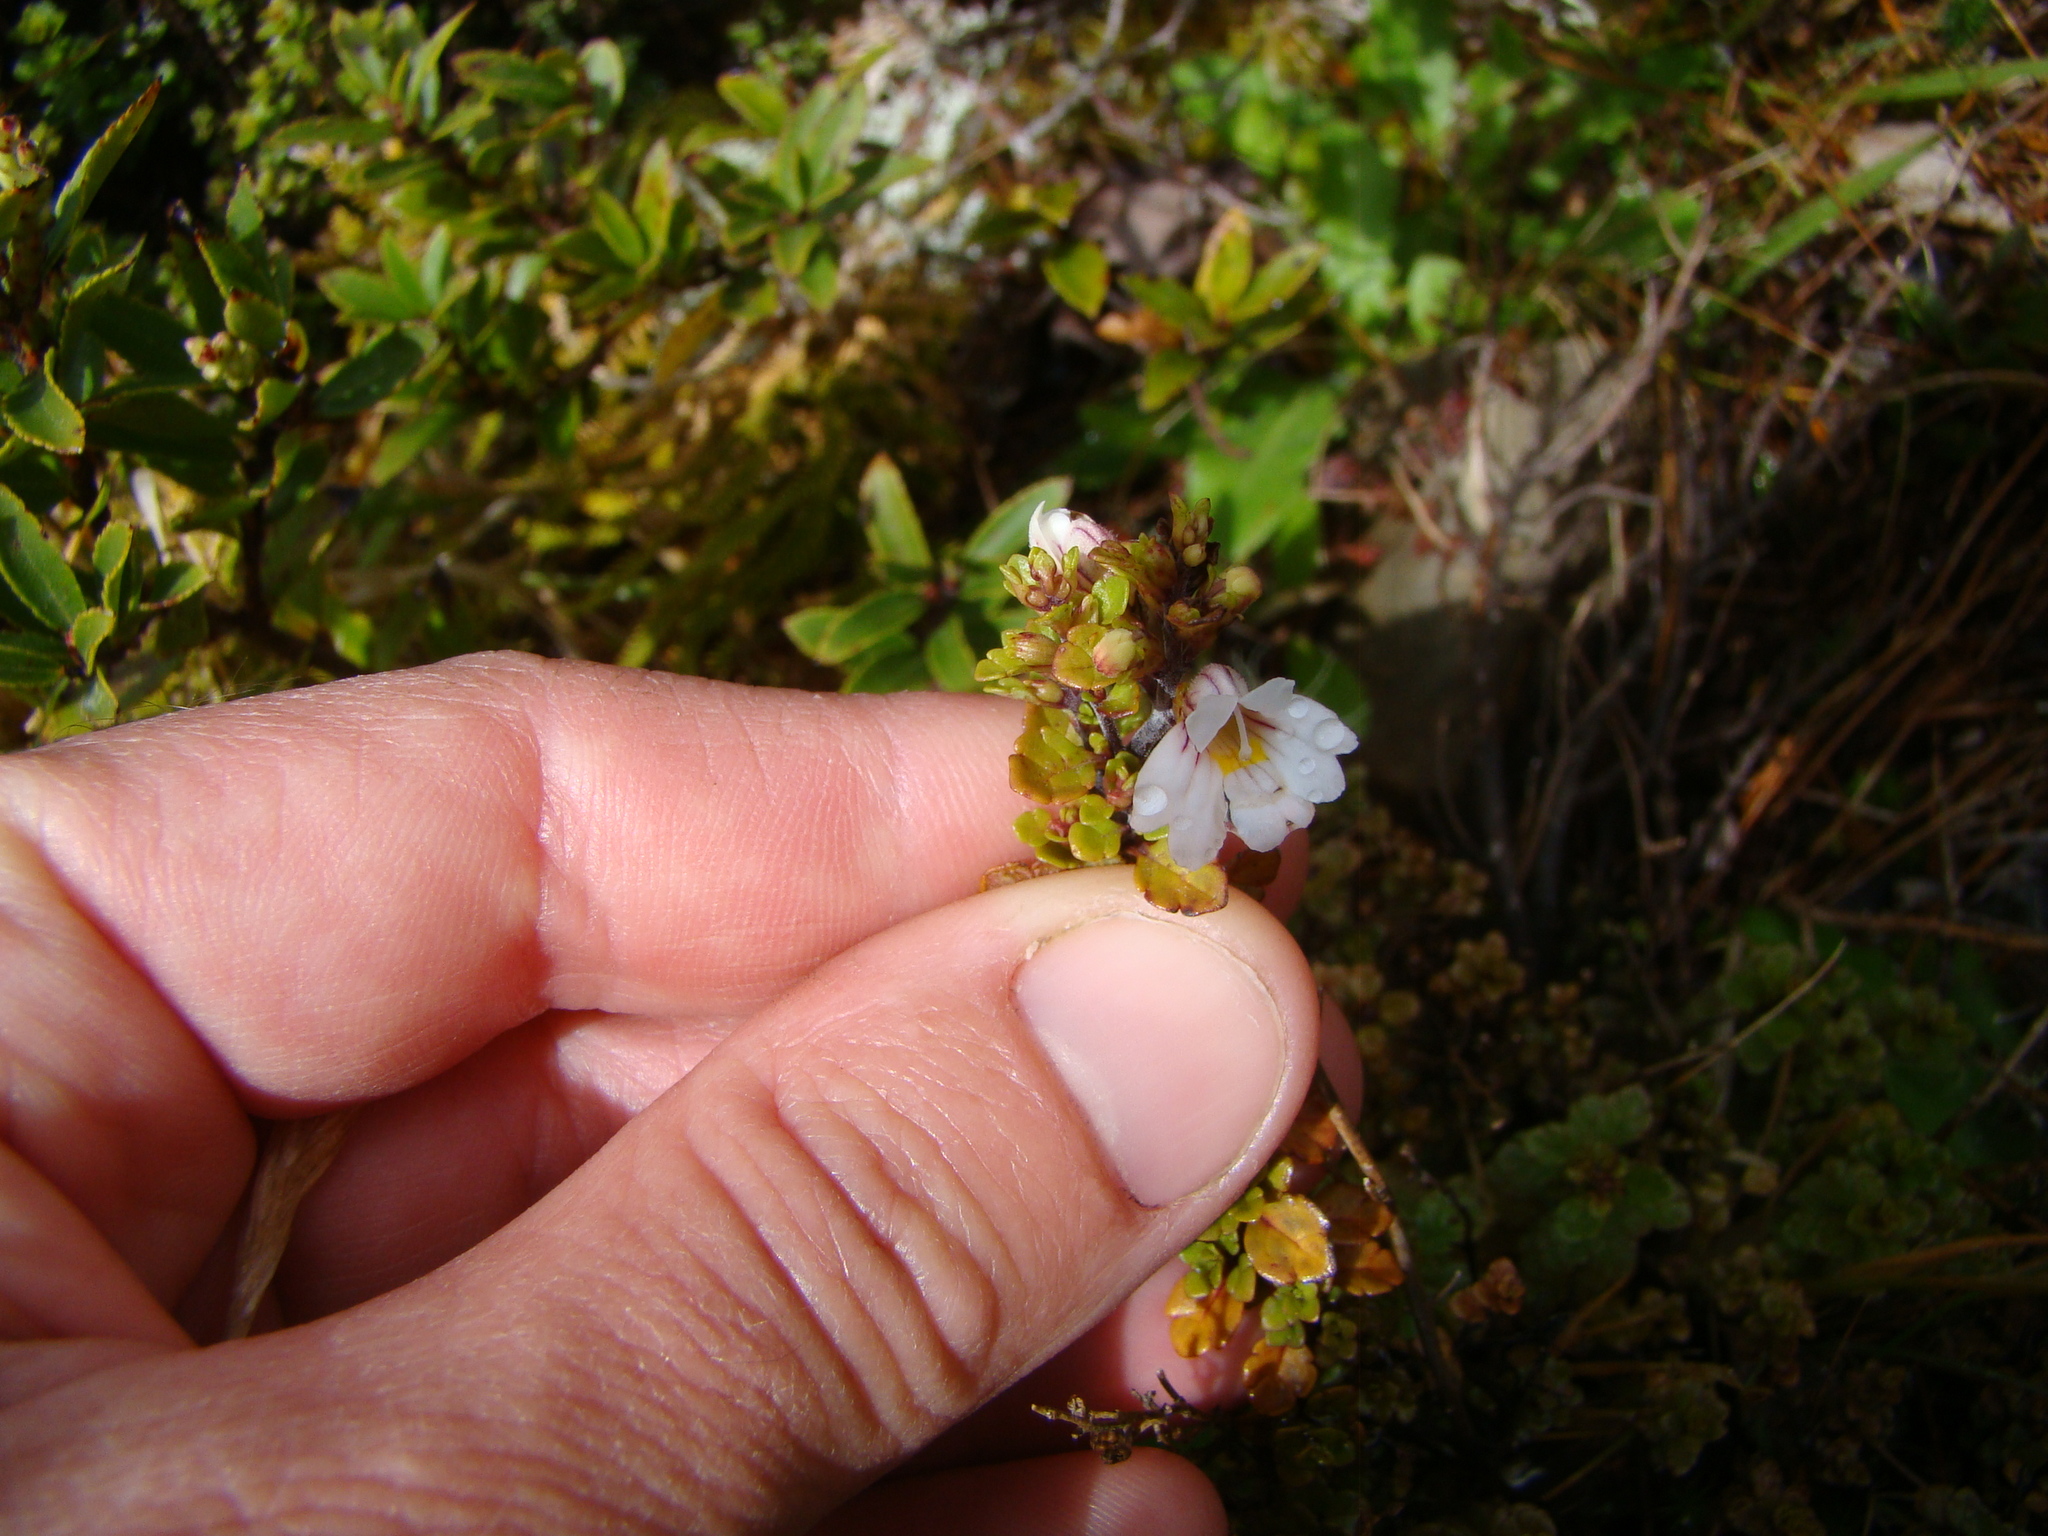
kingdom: Plantae
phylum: Tracheophyta
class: Magnoliopsida
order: Lamiales
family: Orobanchaceae
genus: Euphrasia
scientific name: Euphrasia cuneata
